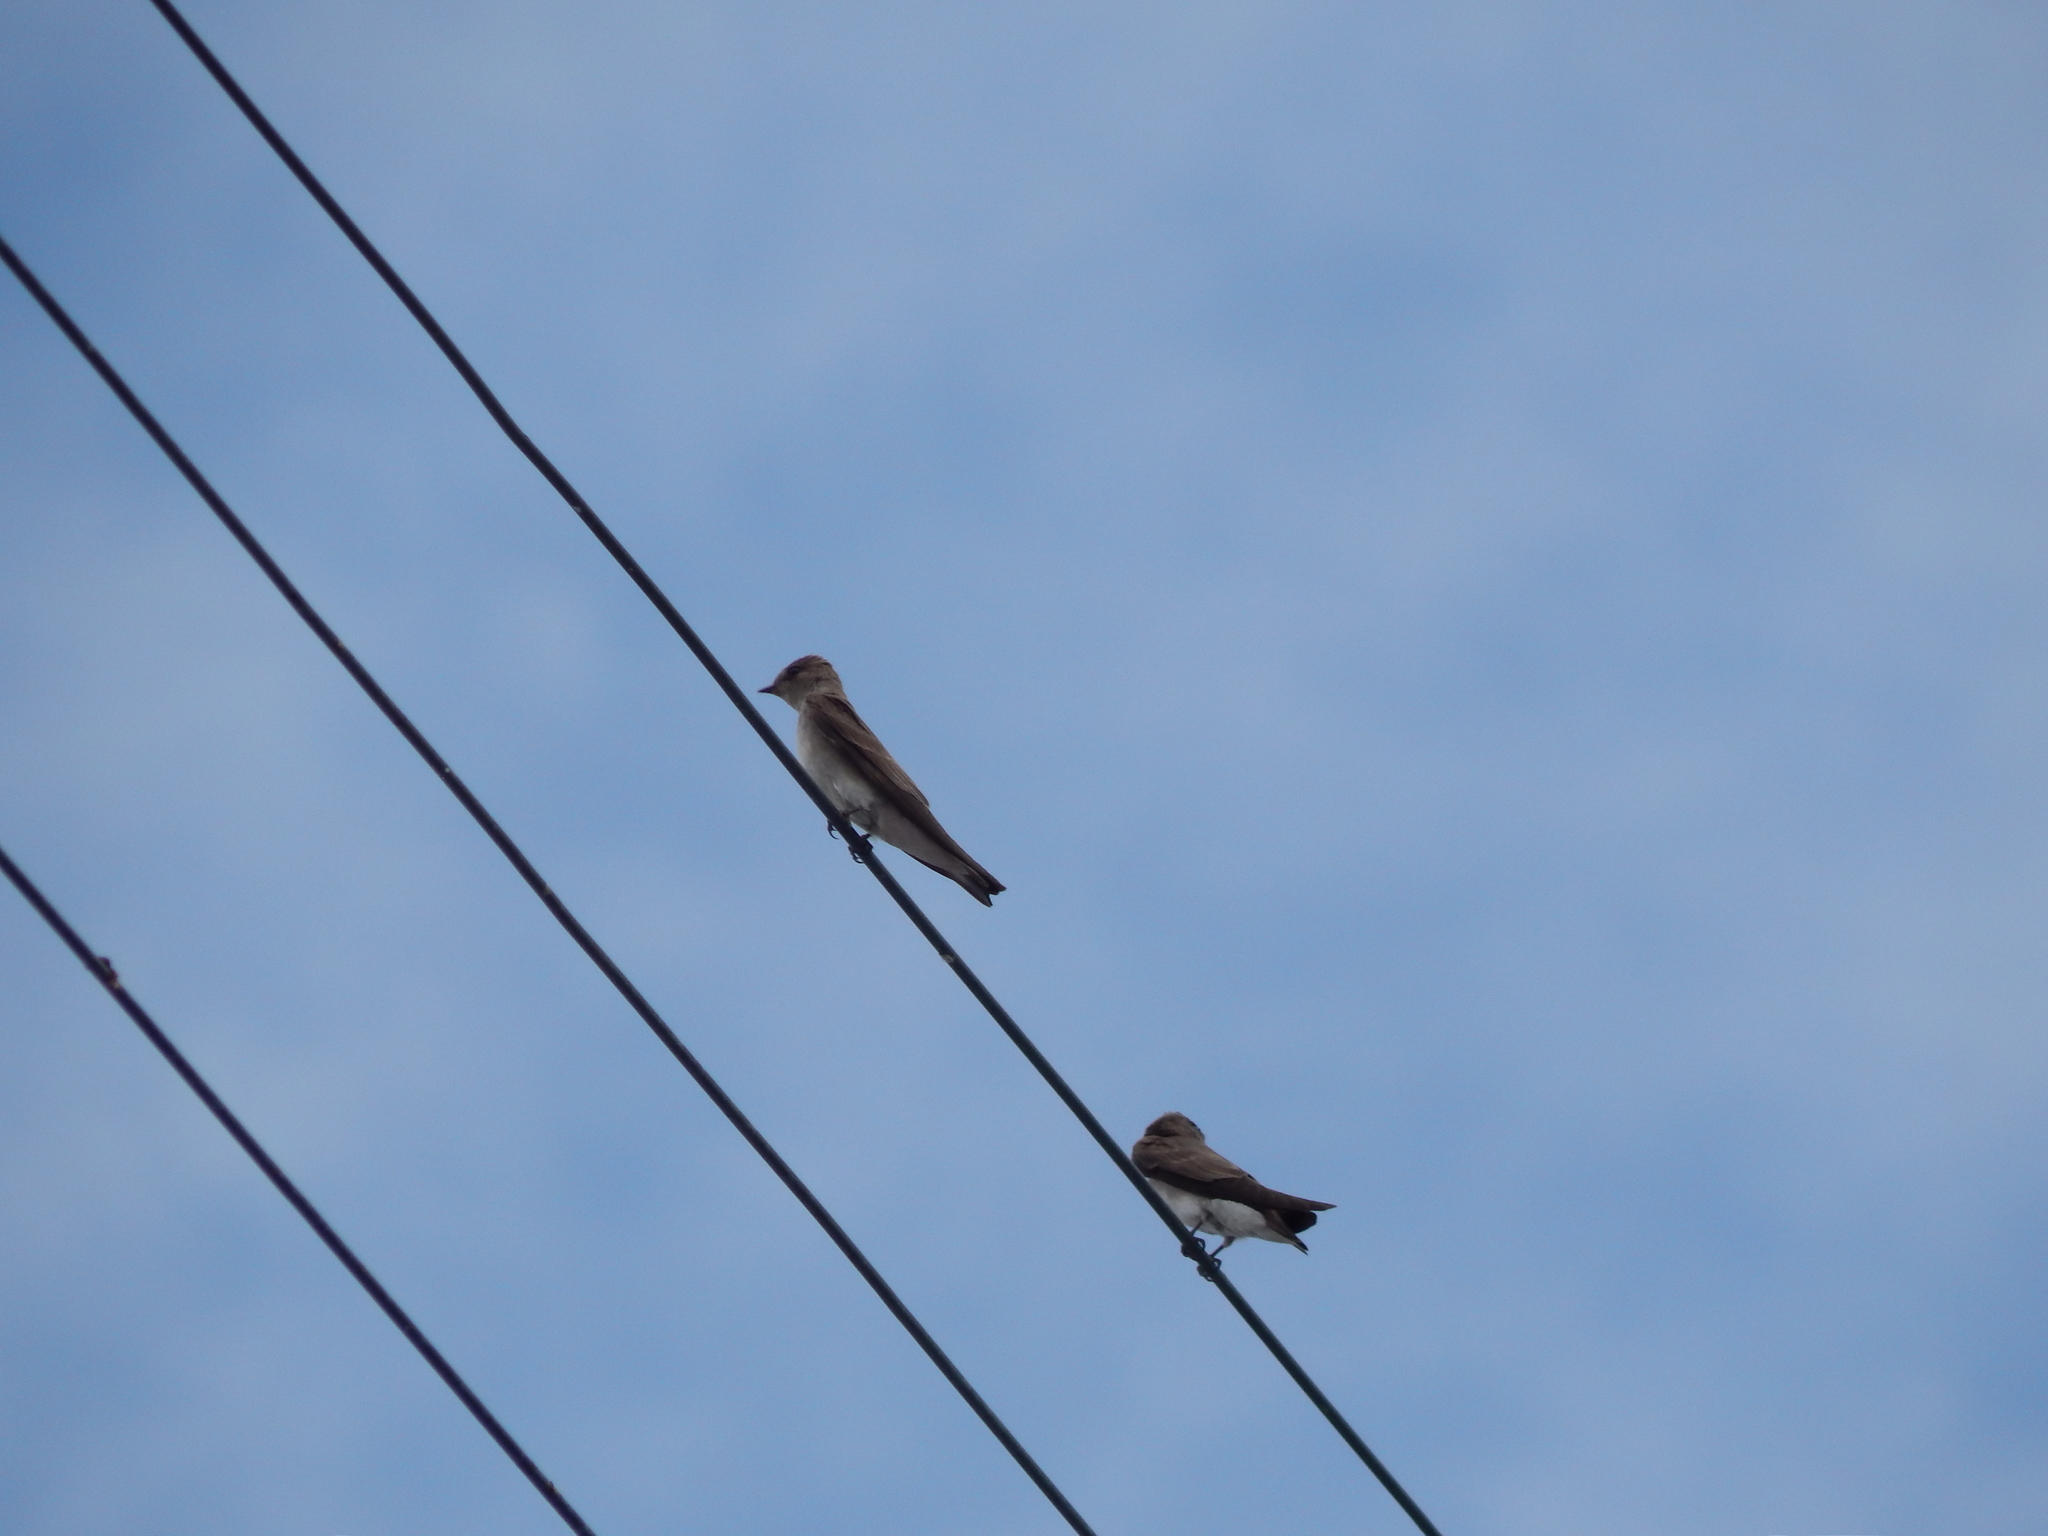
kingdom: Animalia
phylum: Chordata
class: Aves
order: Passeriformes
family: Hirundinidae
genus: Stelgidopteryx
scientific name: Stelgidopteryx serripennis
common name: Northern rough-winged swallow
